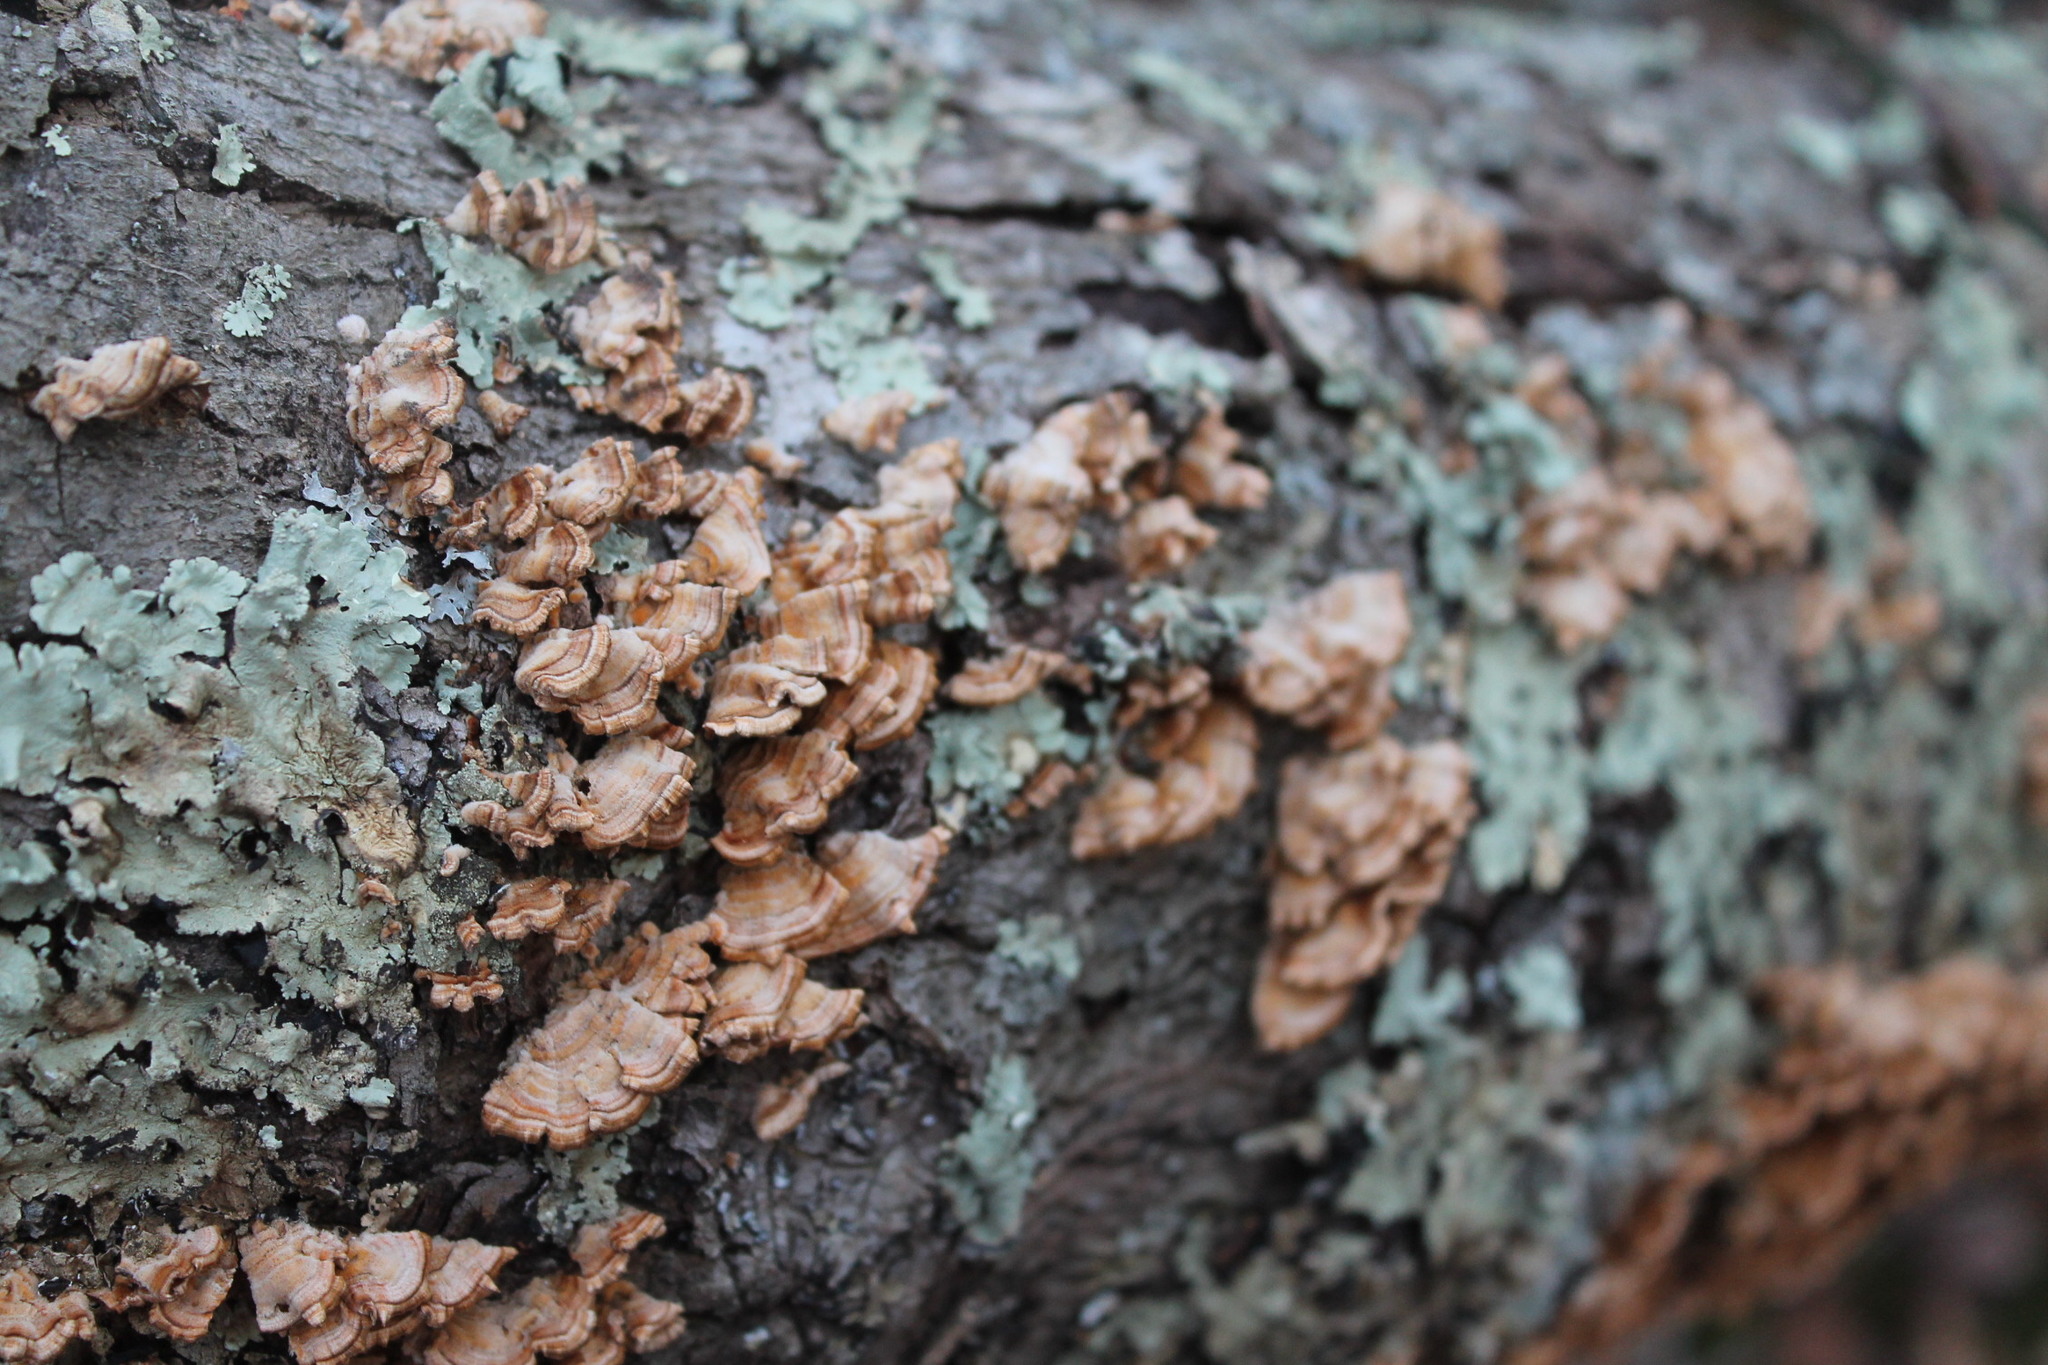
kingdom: Fungi
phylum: Basidiomycota
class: Agaricomycetes
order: Russulales
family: Stereaceae
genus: Stereum
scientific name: Stereum complicatum
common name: Crowded parchment
